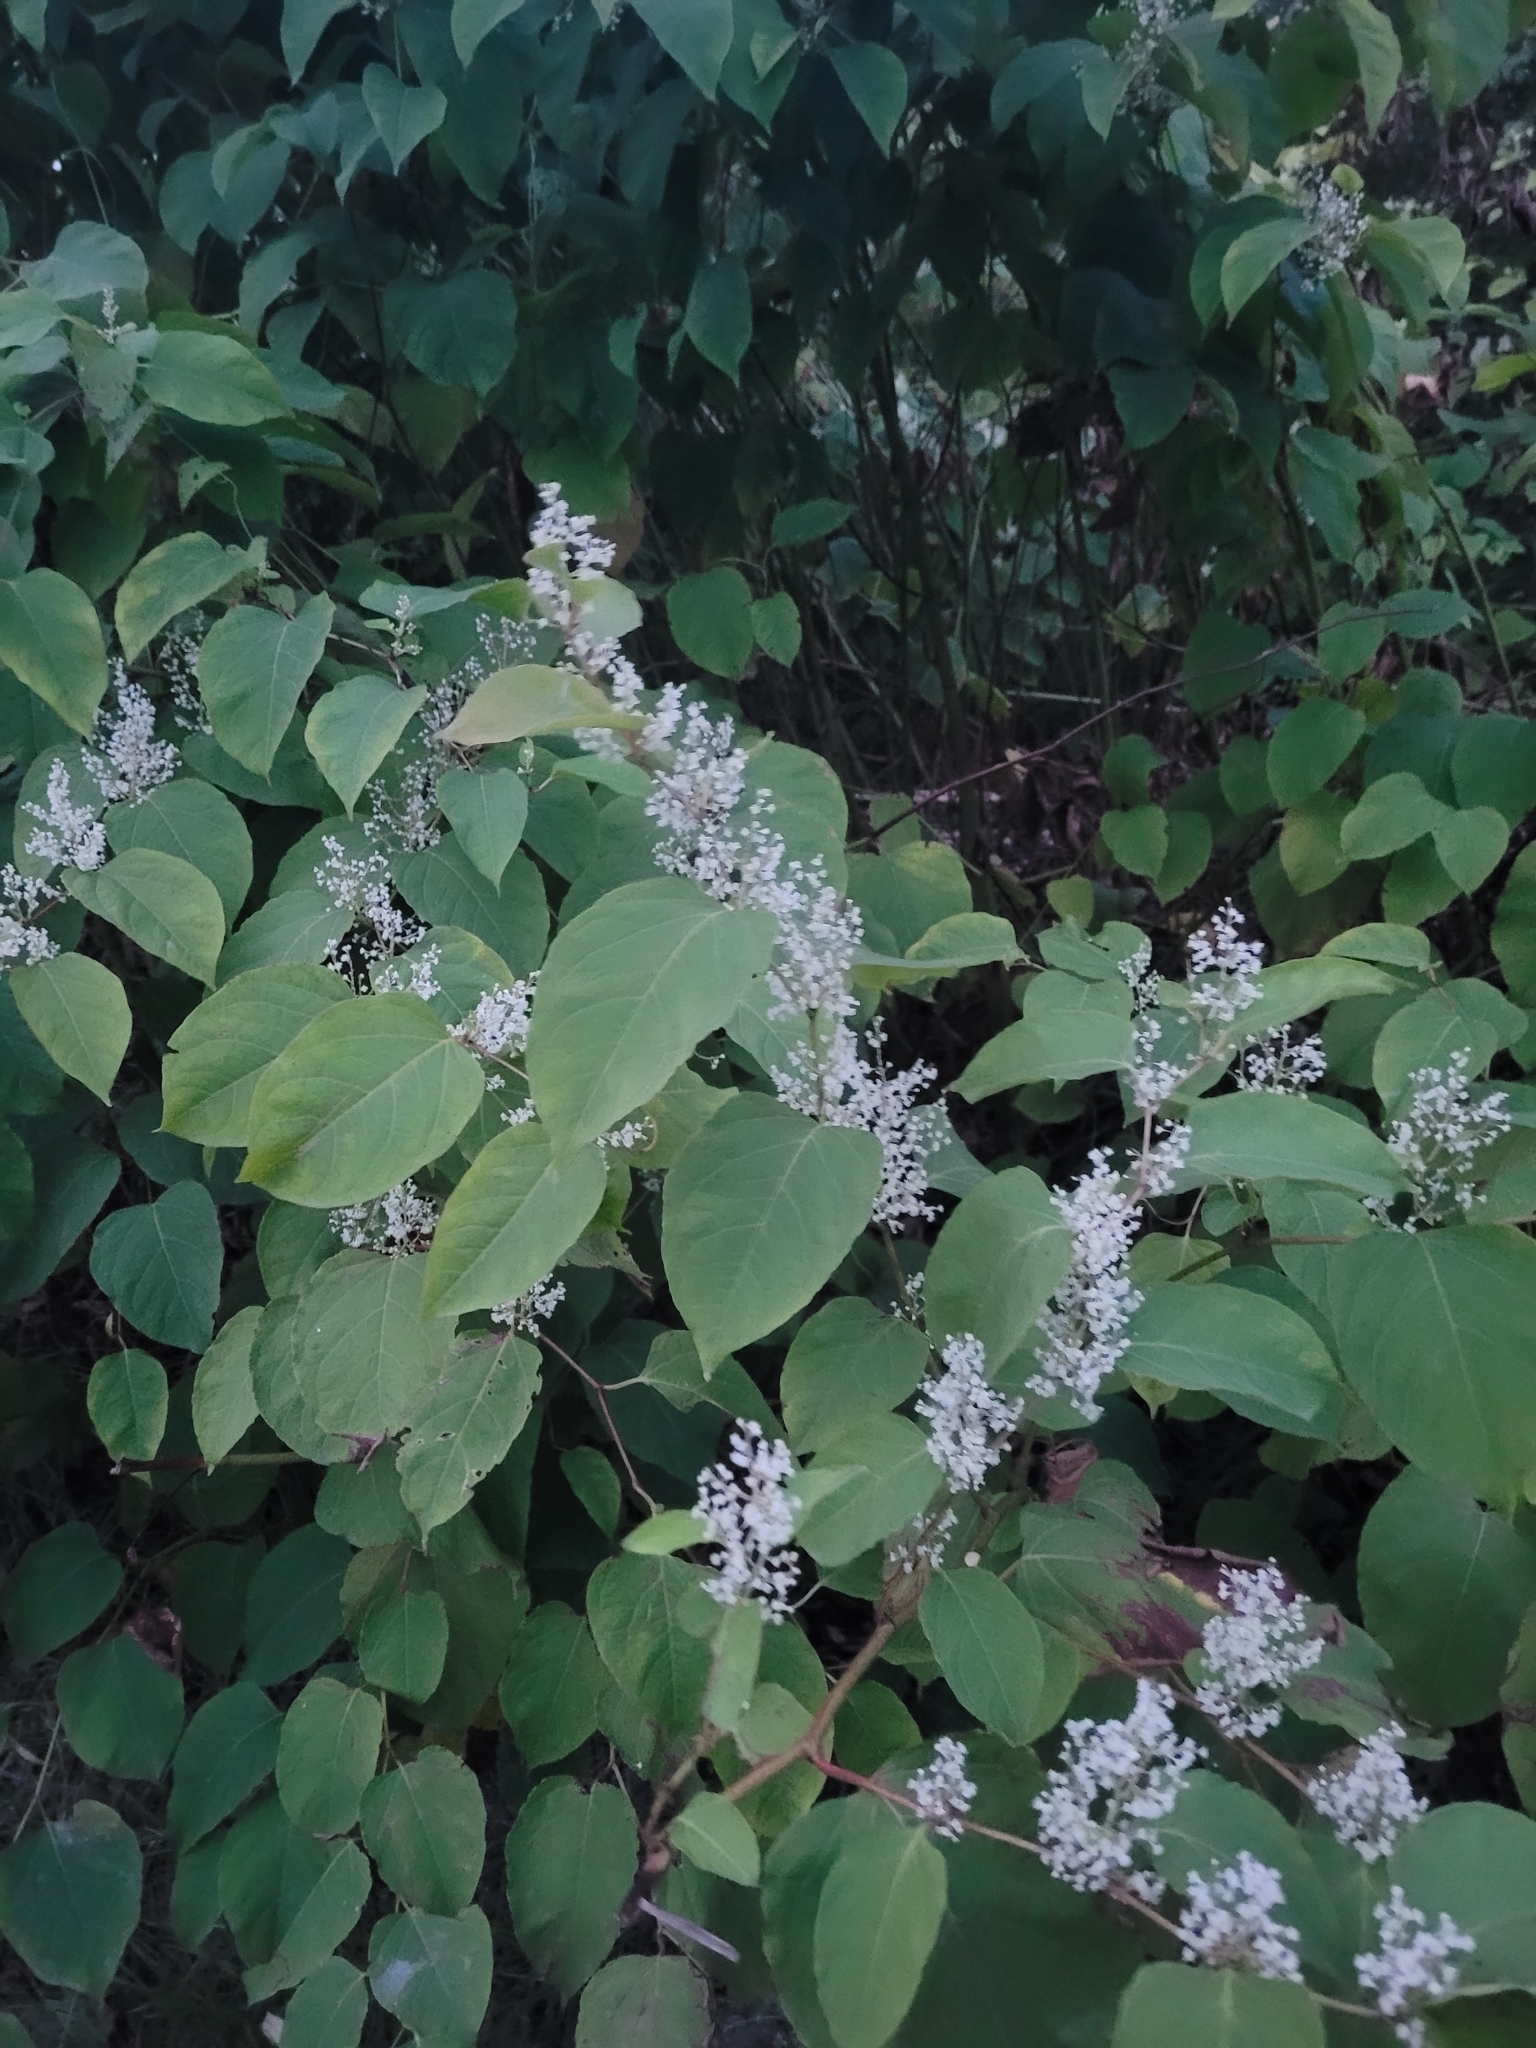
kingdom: Plantae
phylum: Tracheophyta
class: Magnoliopsida
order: Caryophyllales
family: Polygonaceae
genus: Reynoutria
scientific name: Reynoutria japonica
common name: Japanese knotweed
